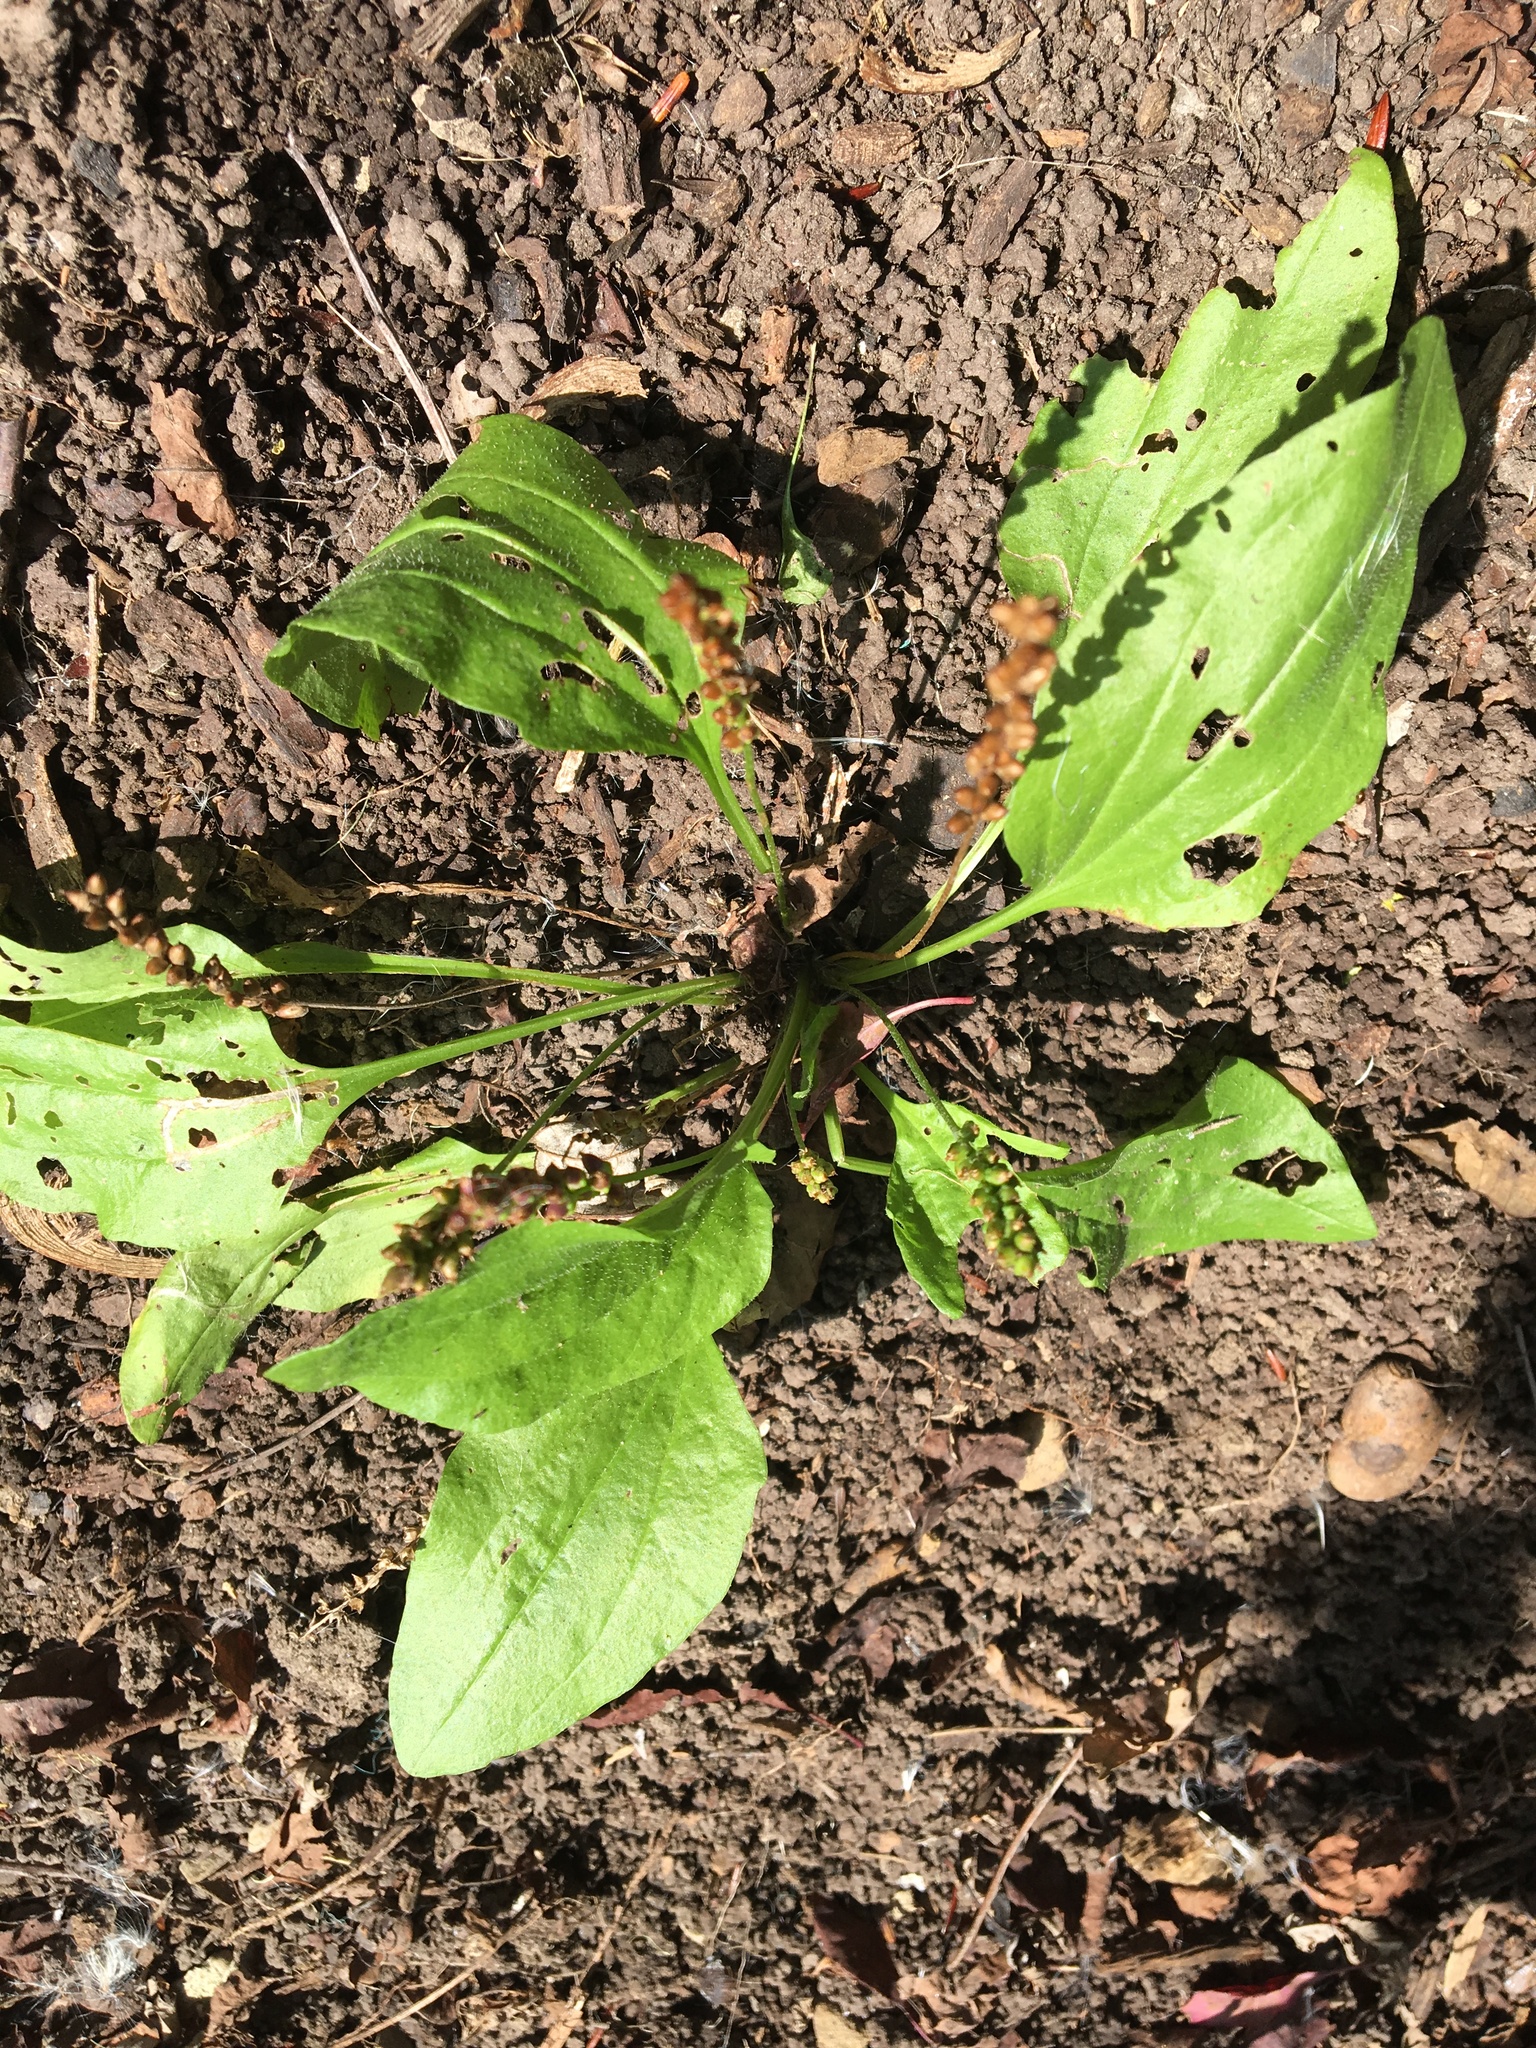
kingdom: Plantae
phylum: Tracheophyta
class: Magnoliopsida
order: Lamiales
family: Plantaginaceae
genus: Plantago
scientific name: Plantago major
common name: Common plantain
